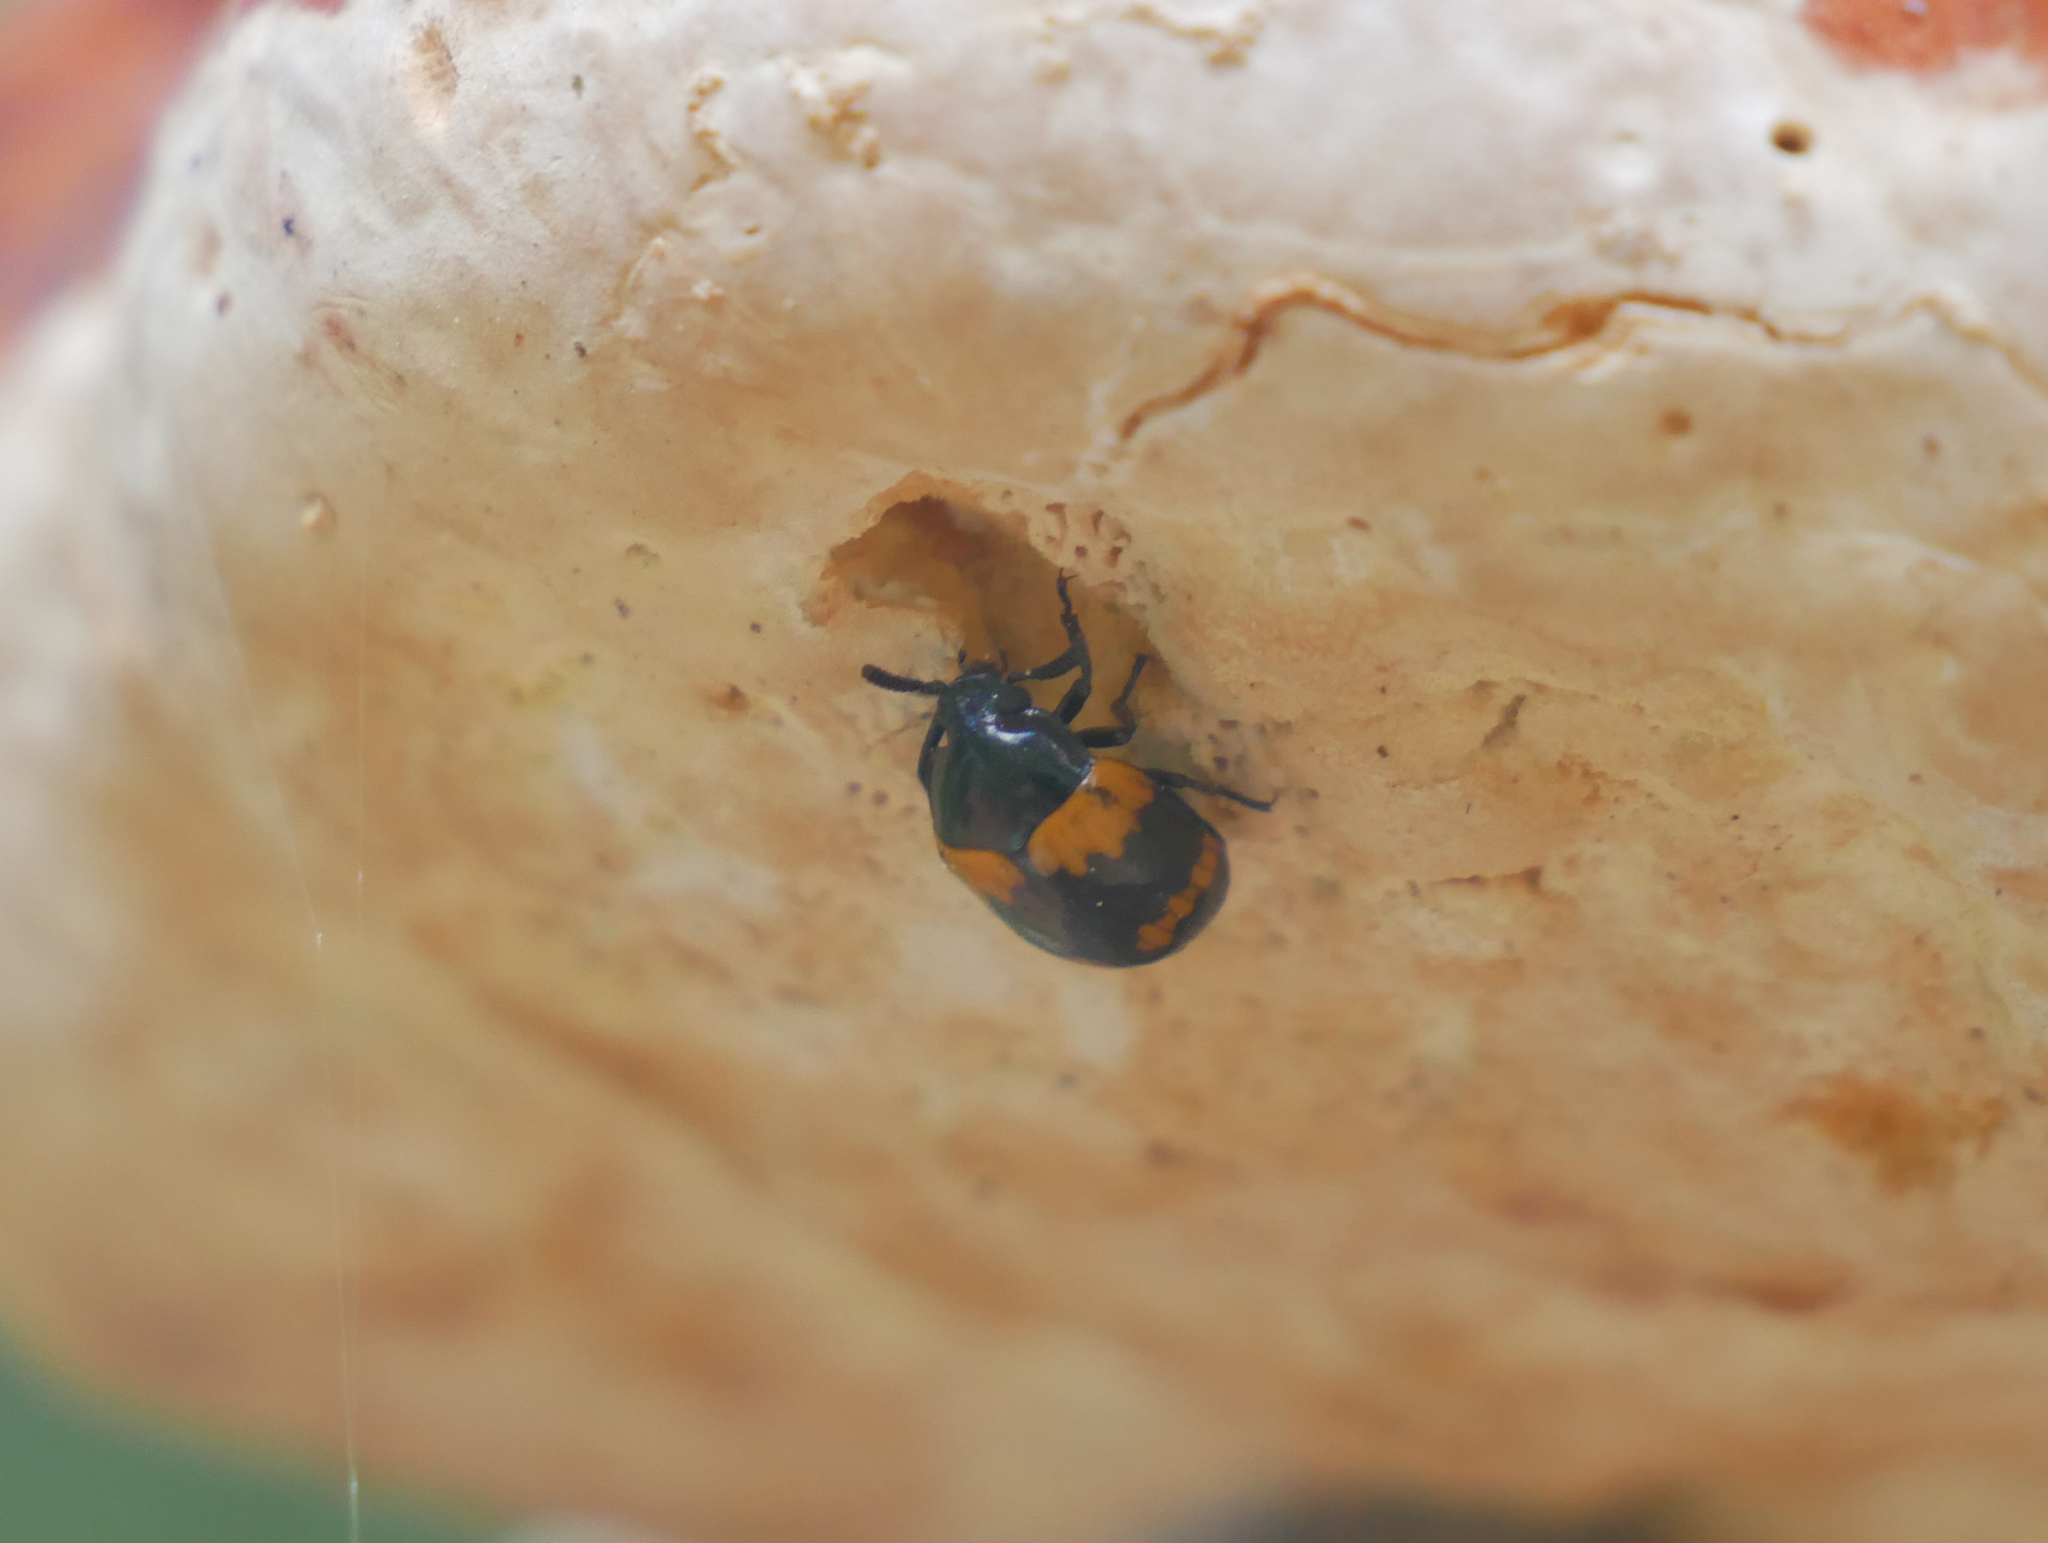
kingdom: Animalia
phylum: Arthropoda
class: Insecta
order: Coleoptera
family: Tenebrionidae
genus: Diaperis
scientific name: Diaperis boleti
